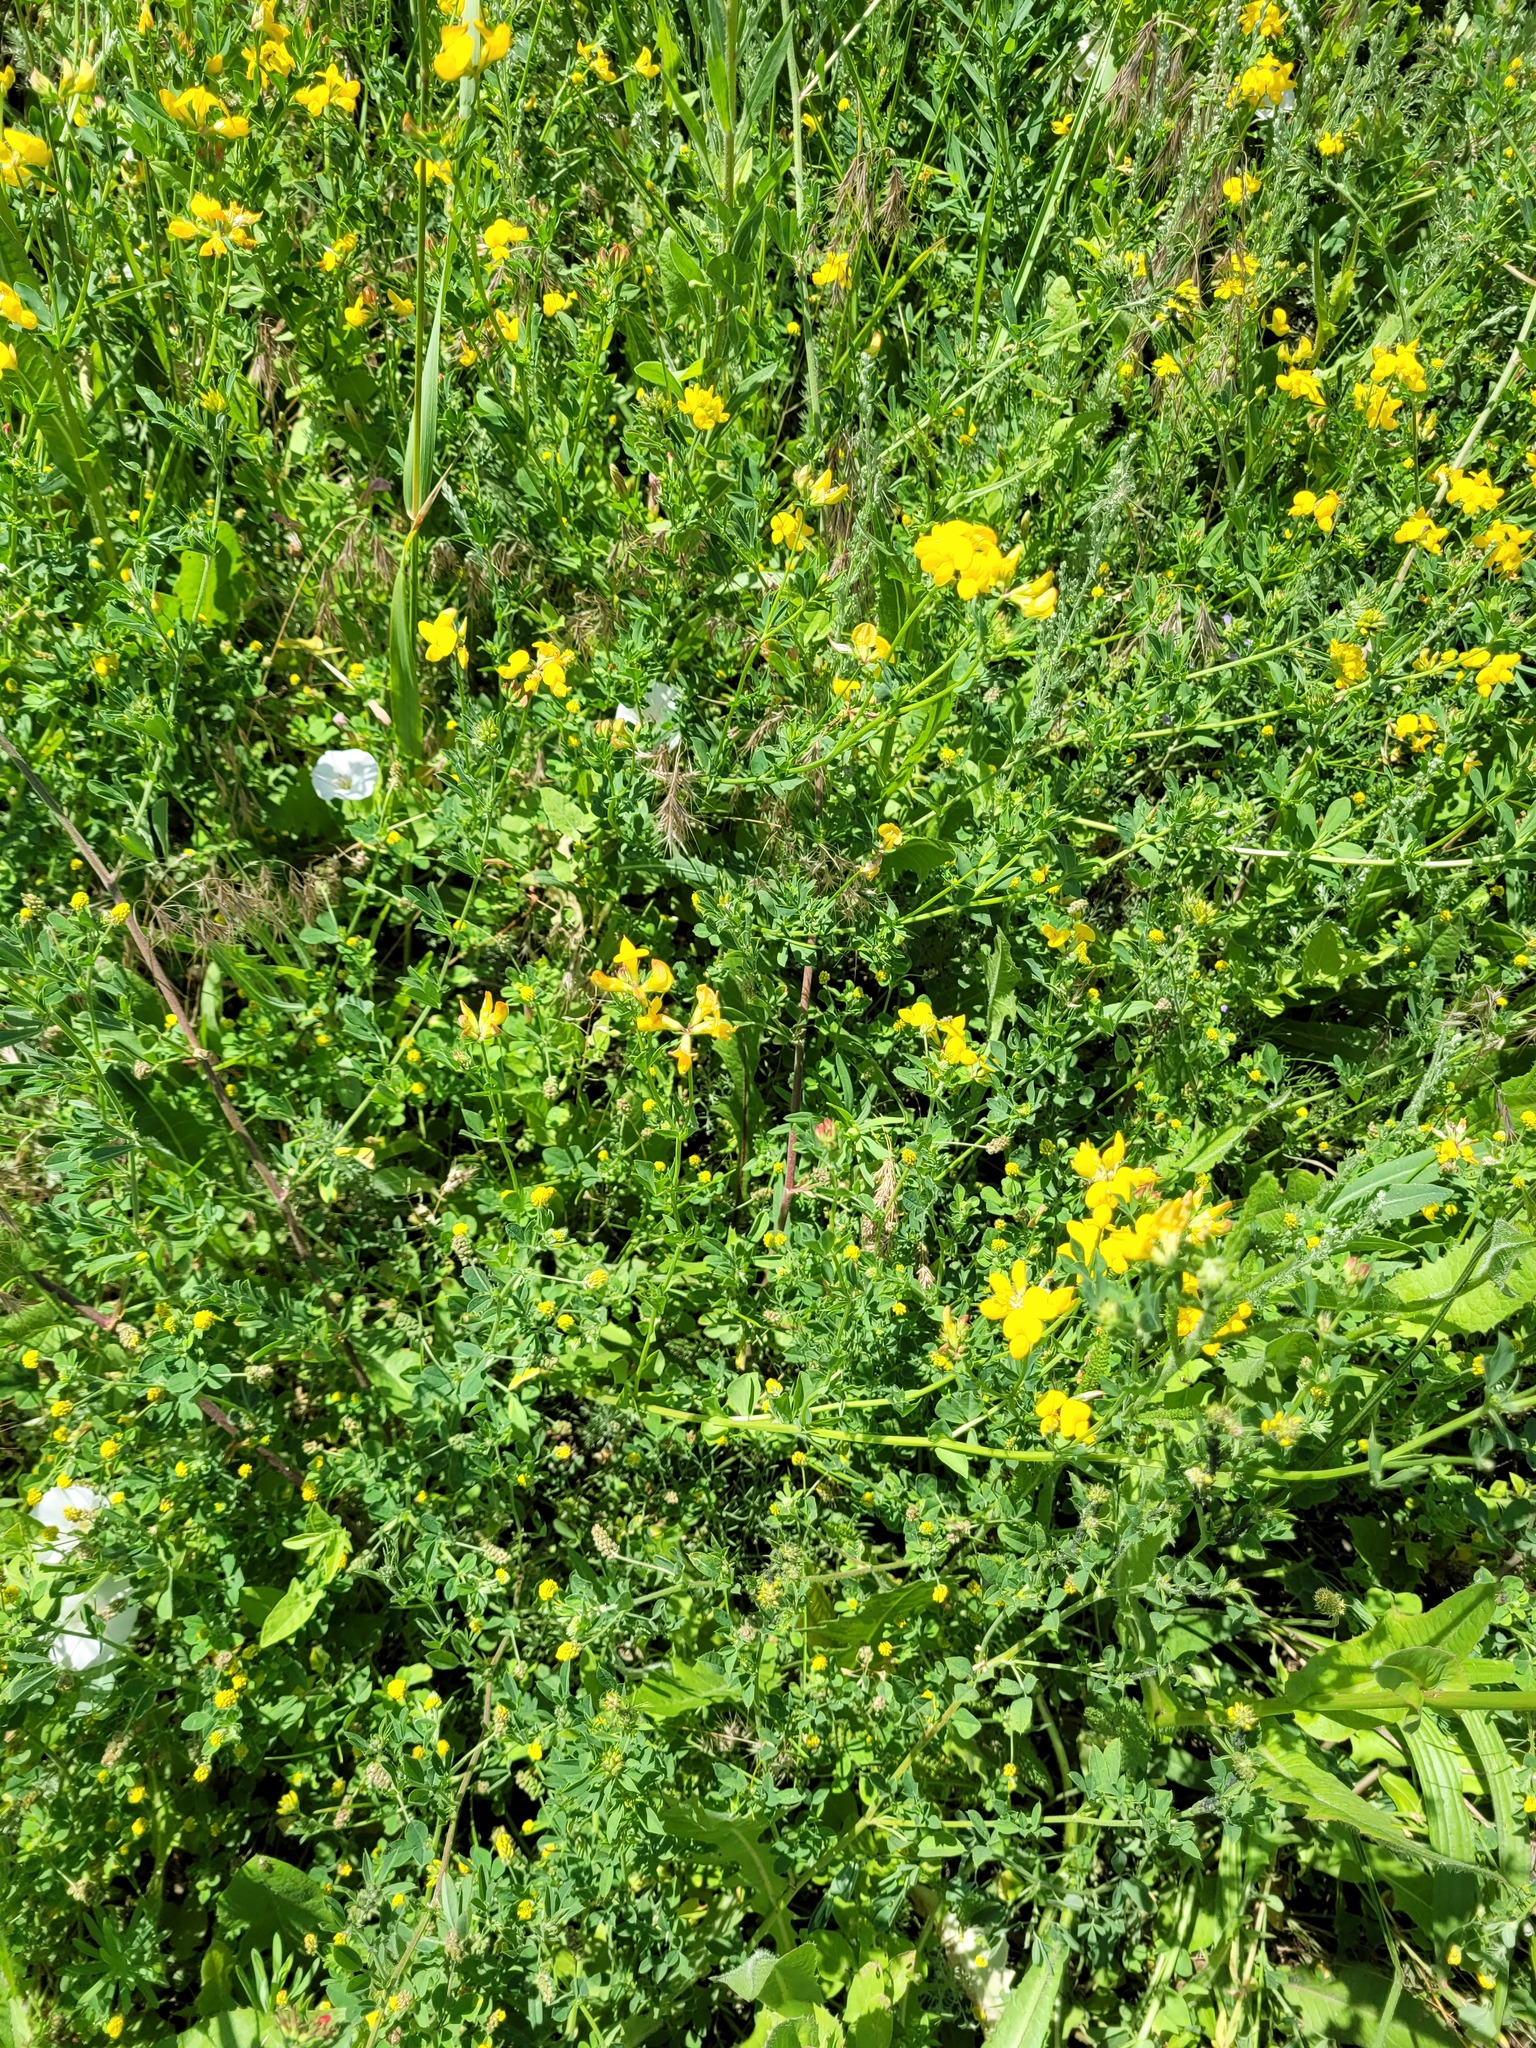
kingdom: Plantae
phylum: Tracheophyta
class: Magnoliopsida
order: Fabales
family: Fabaceae
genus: Lotus
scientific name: Lotus corniculatus
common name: Common bird's-foot-trefoil
